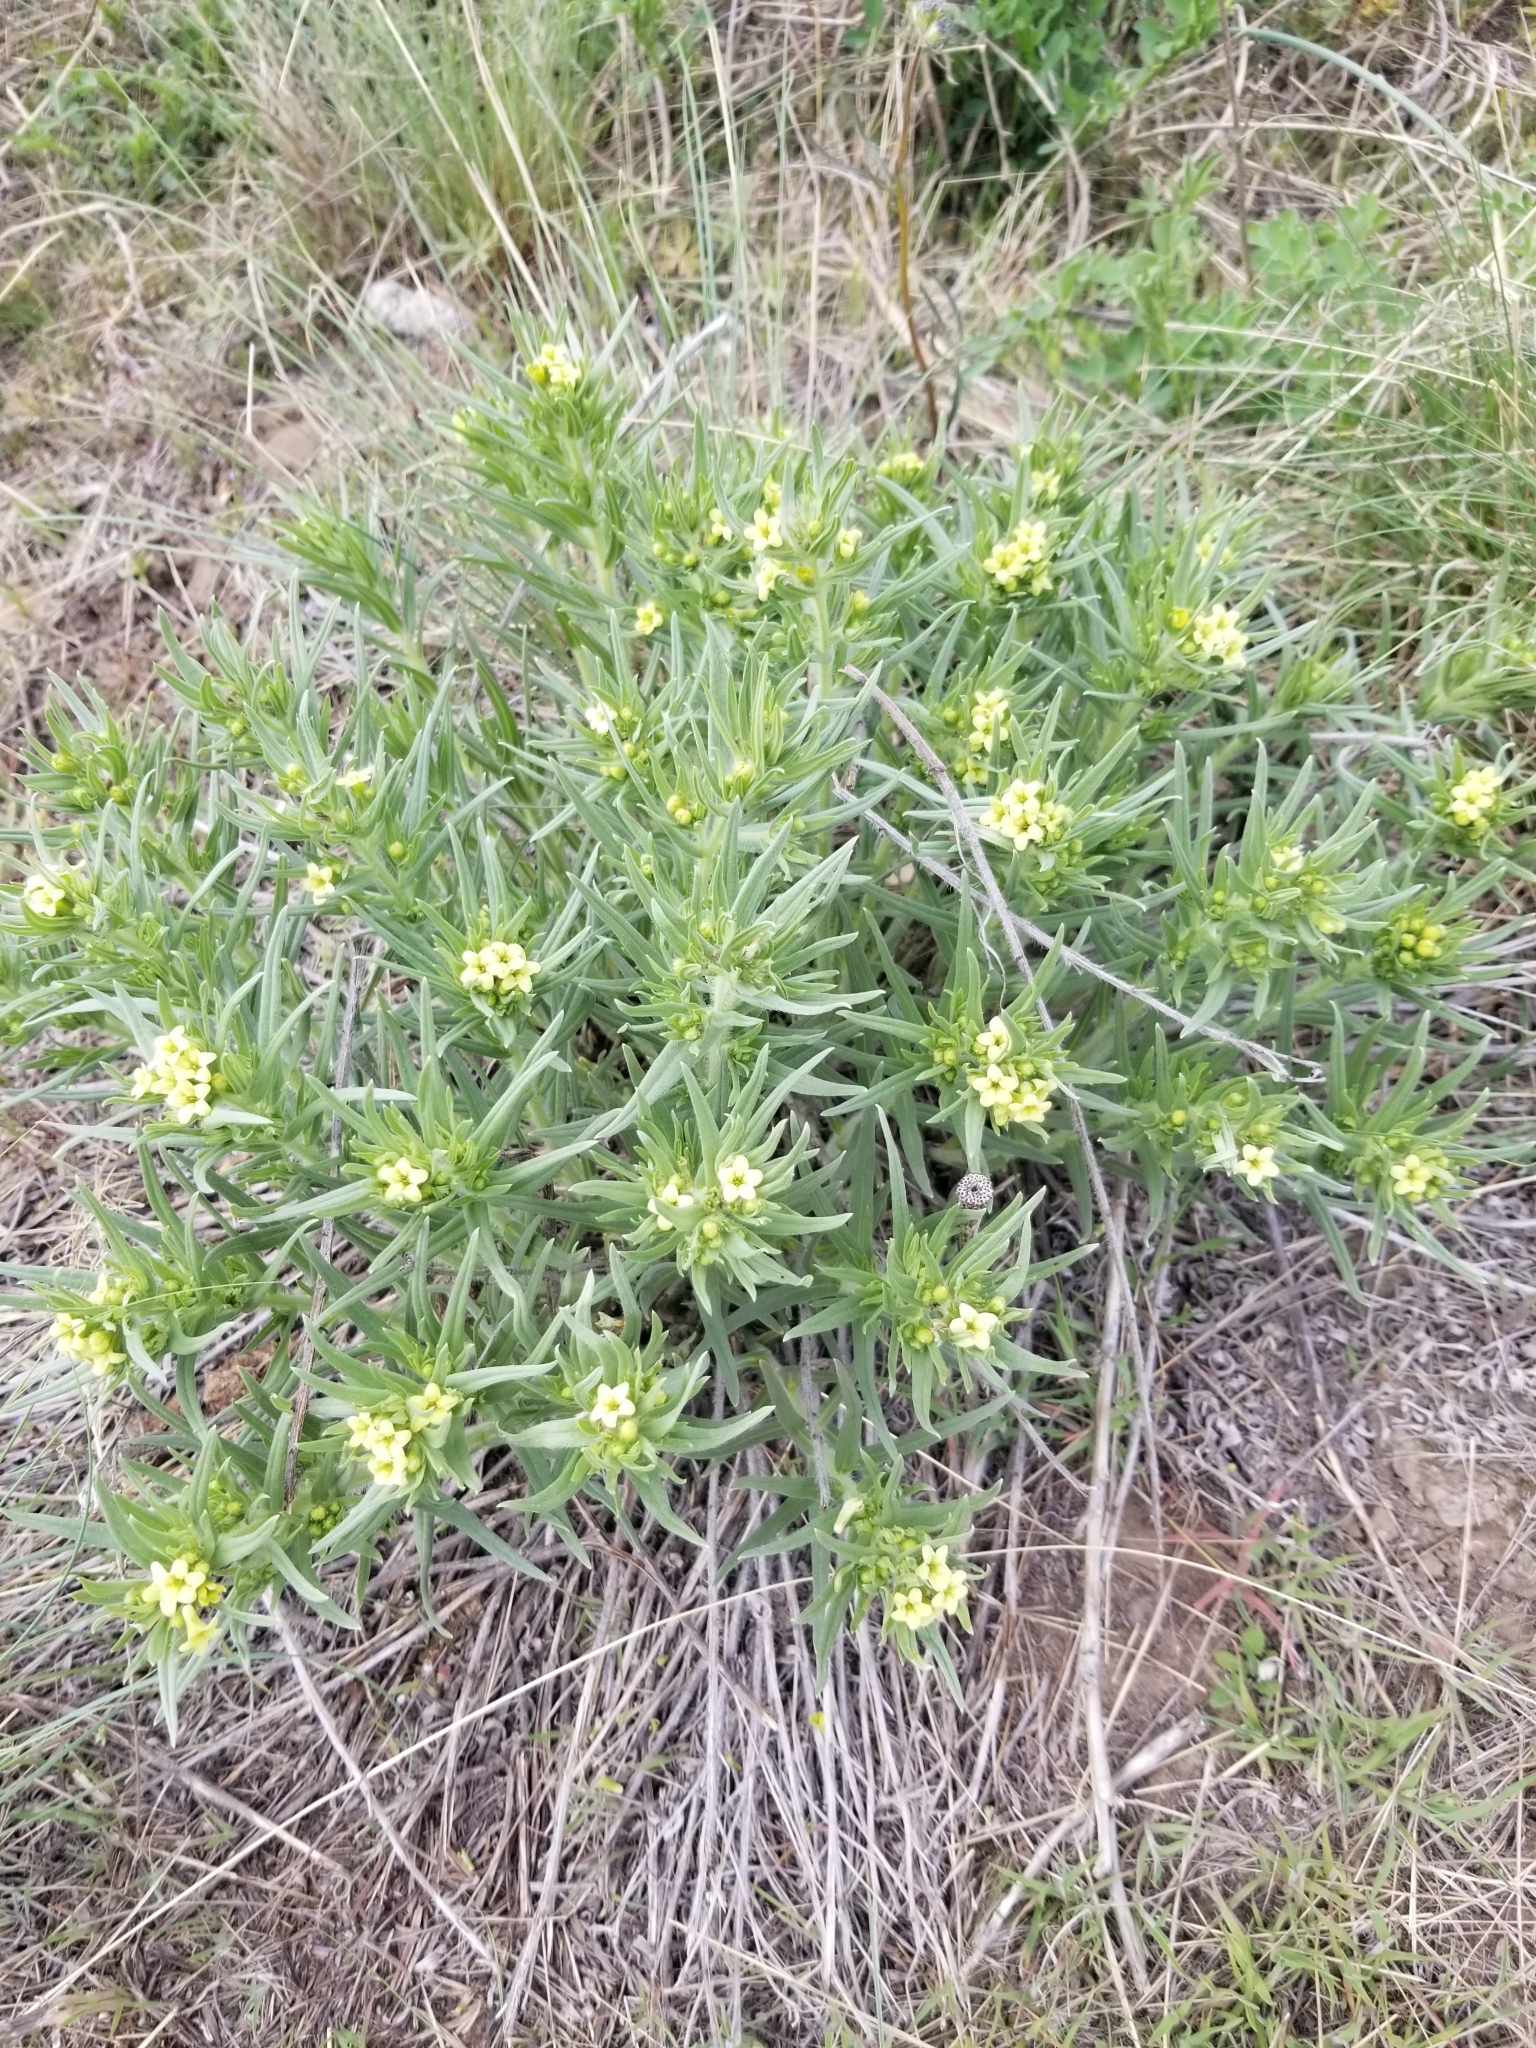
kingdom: Plantae
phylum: Tracheophyta
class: Magnoliopsida
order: Boraginales
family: Boraginaceae
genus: Lithospermum
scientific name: Lithospermum ruderale
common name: Western gromwell
